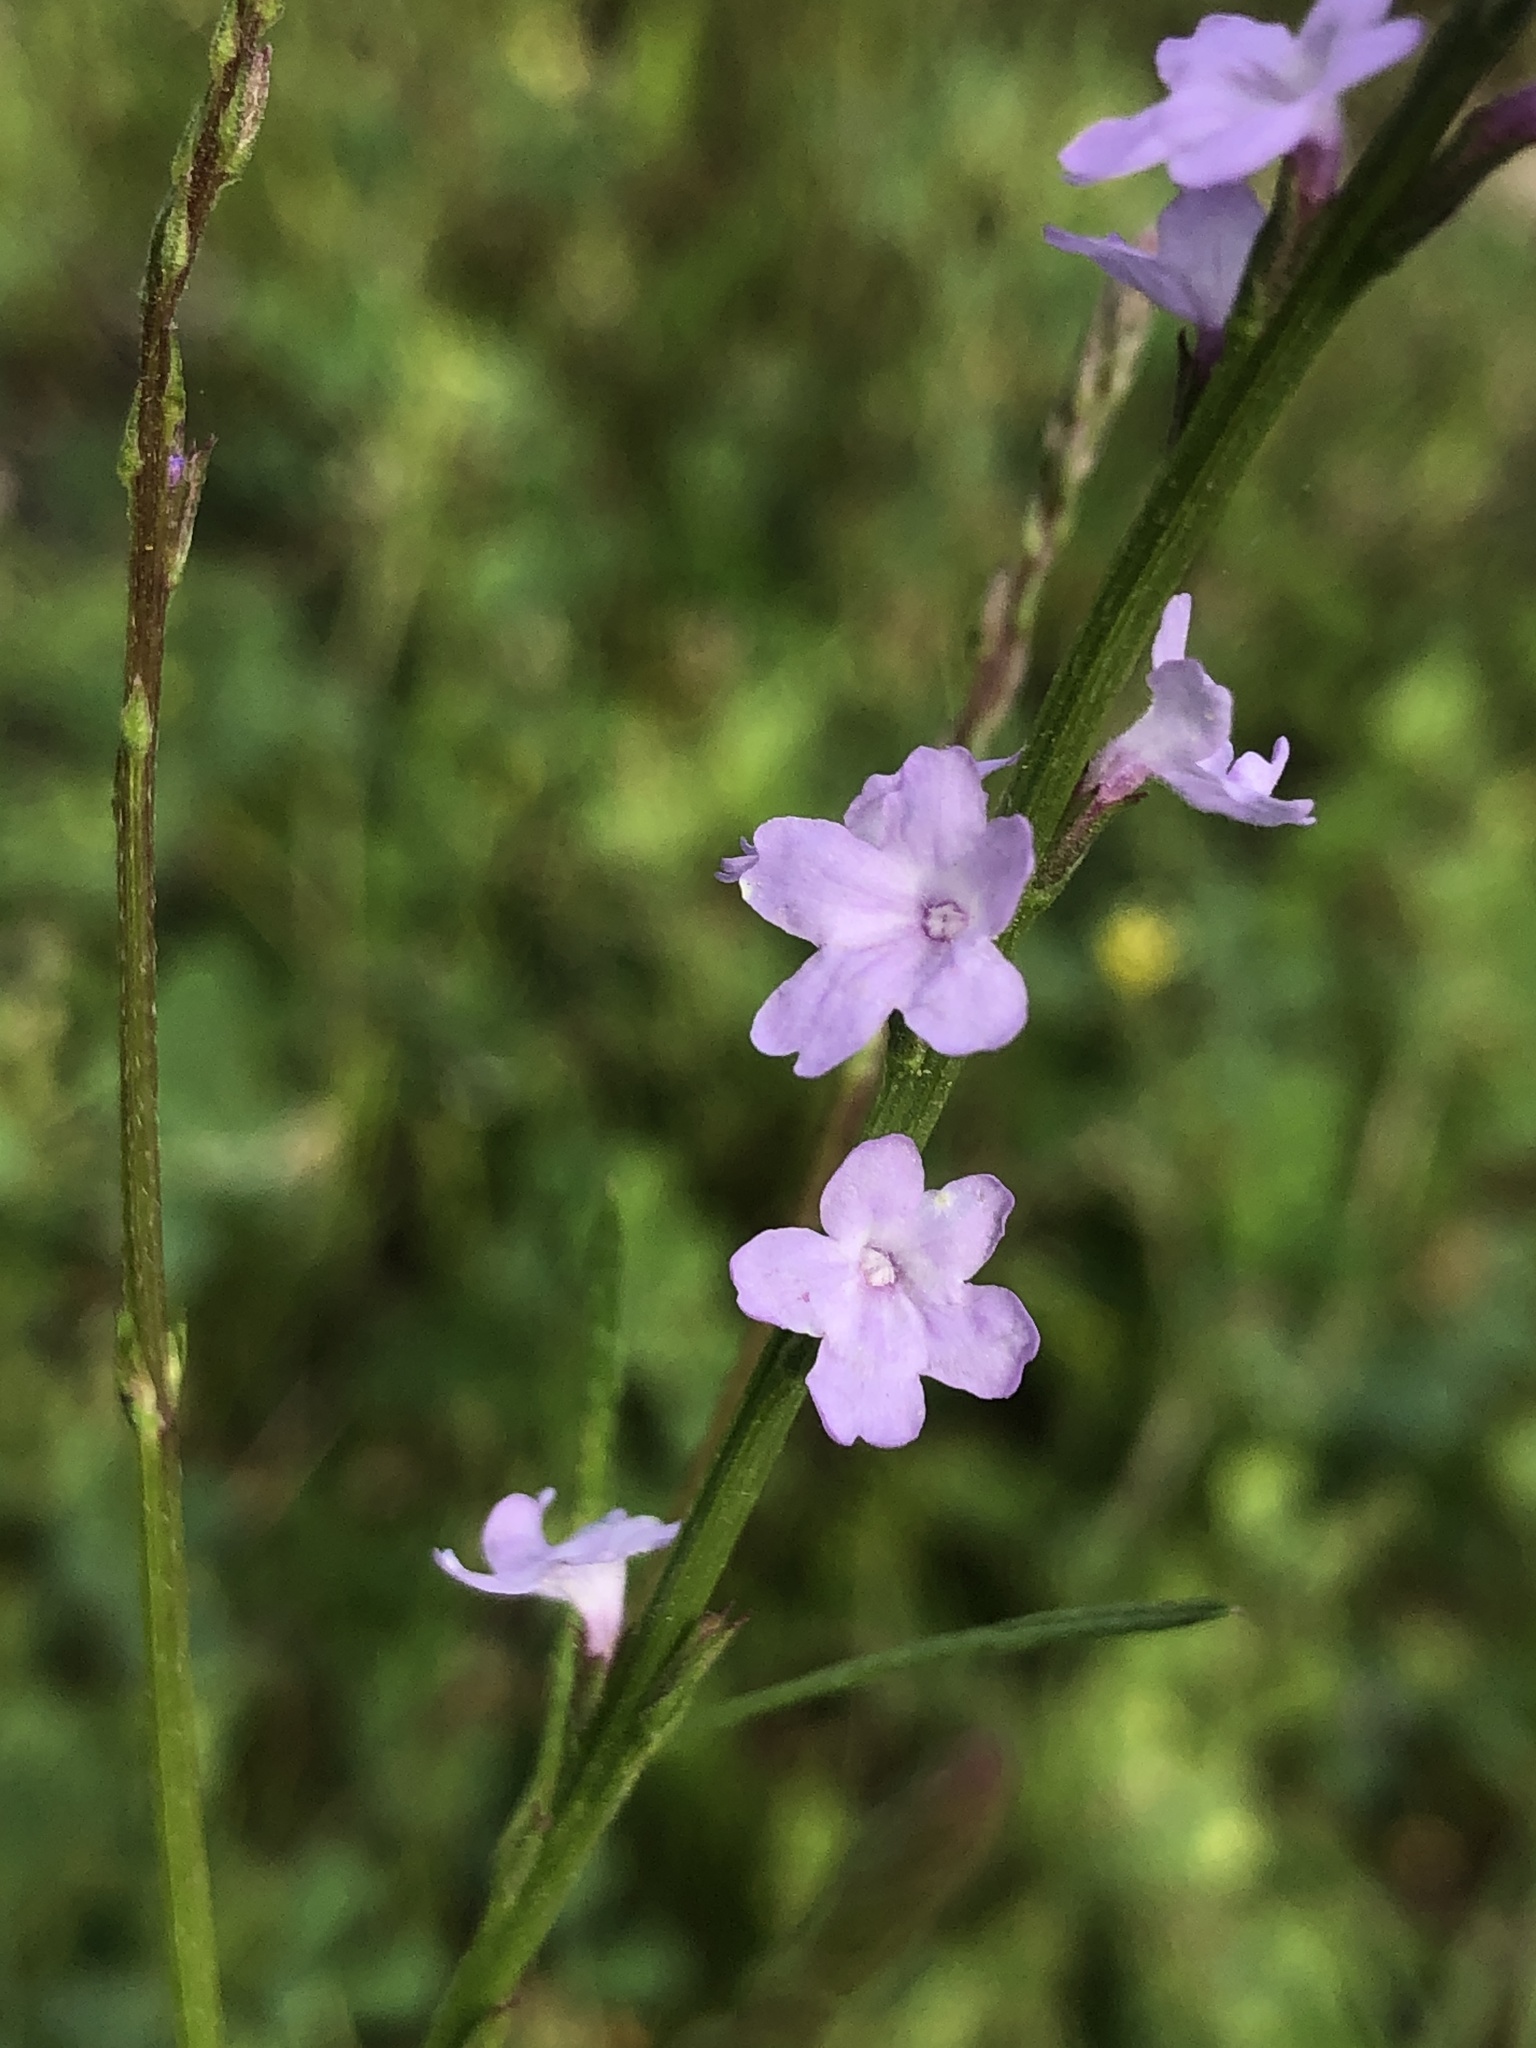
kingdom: Plantae
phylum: Tracheophyta
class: Magnoliopsida
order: Lamiales
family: Verbenaceae
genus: Verbena
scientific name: Verbena halei
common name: Texas vervain
